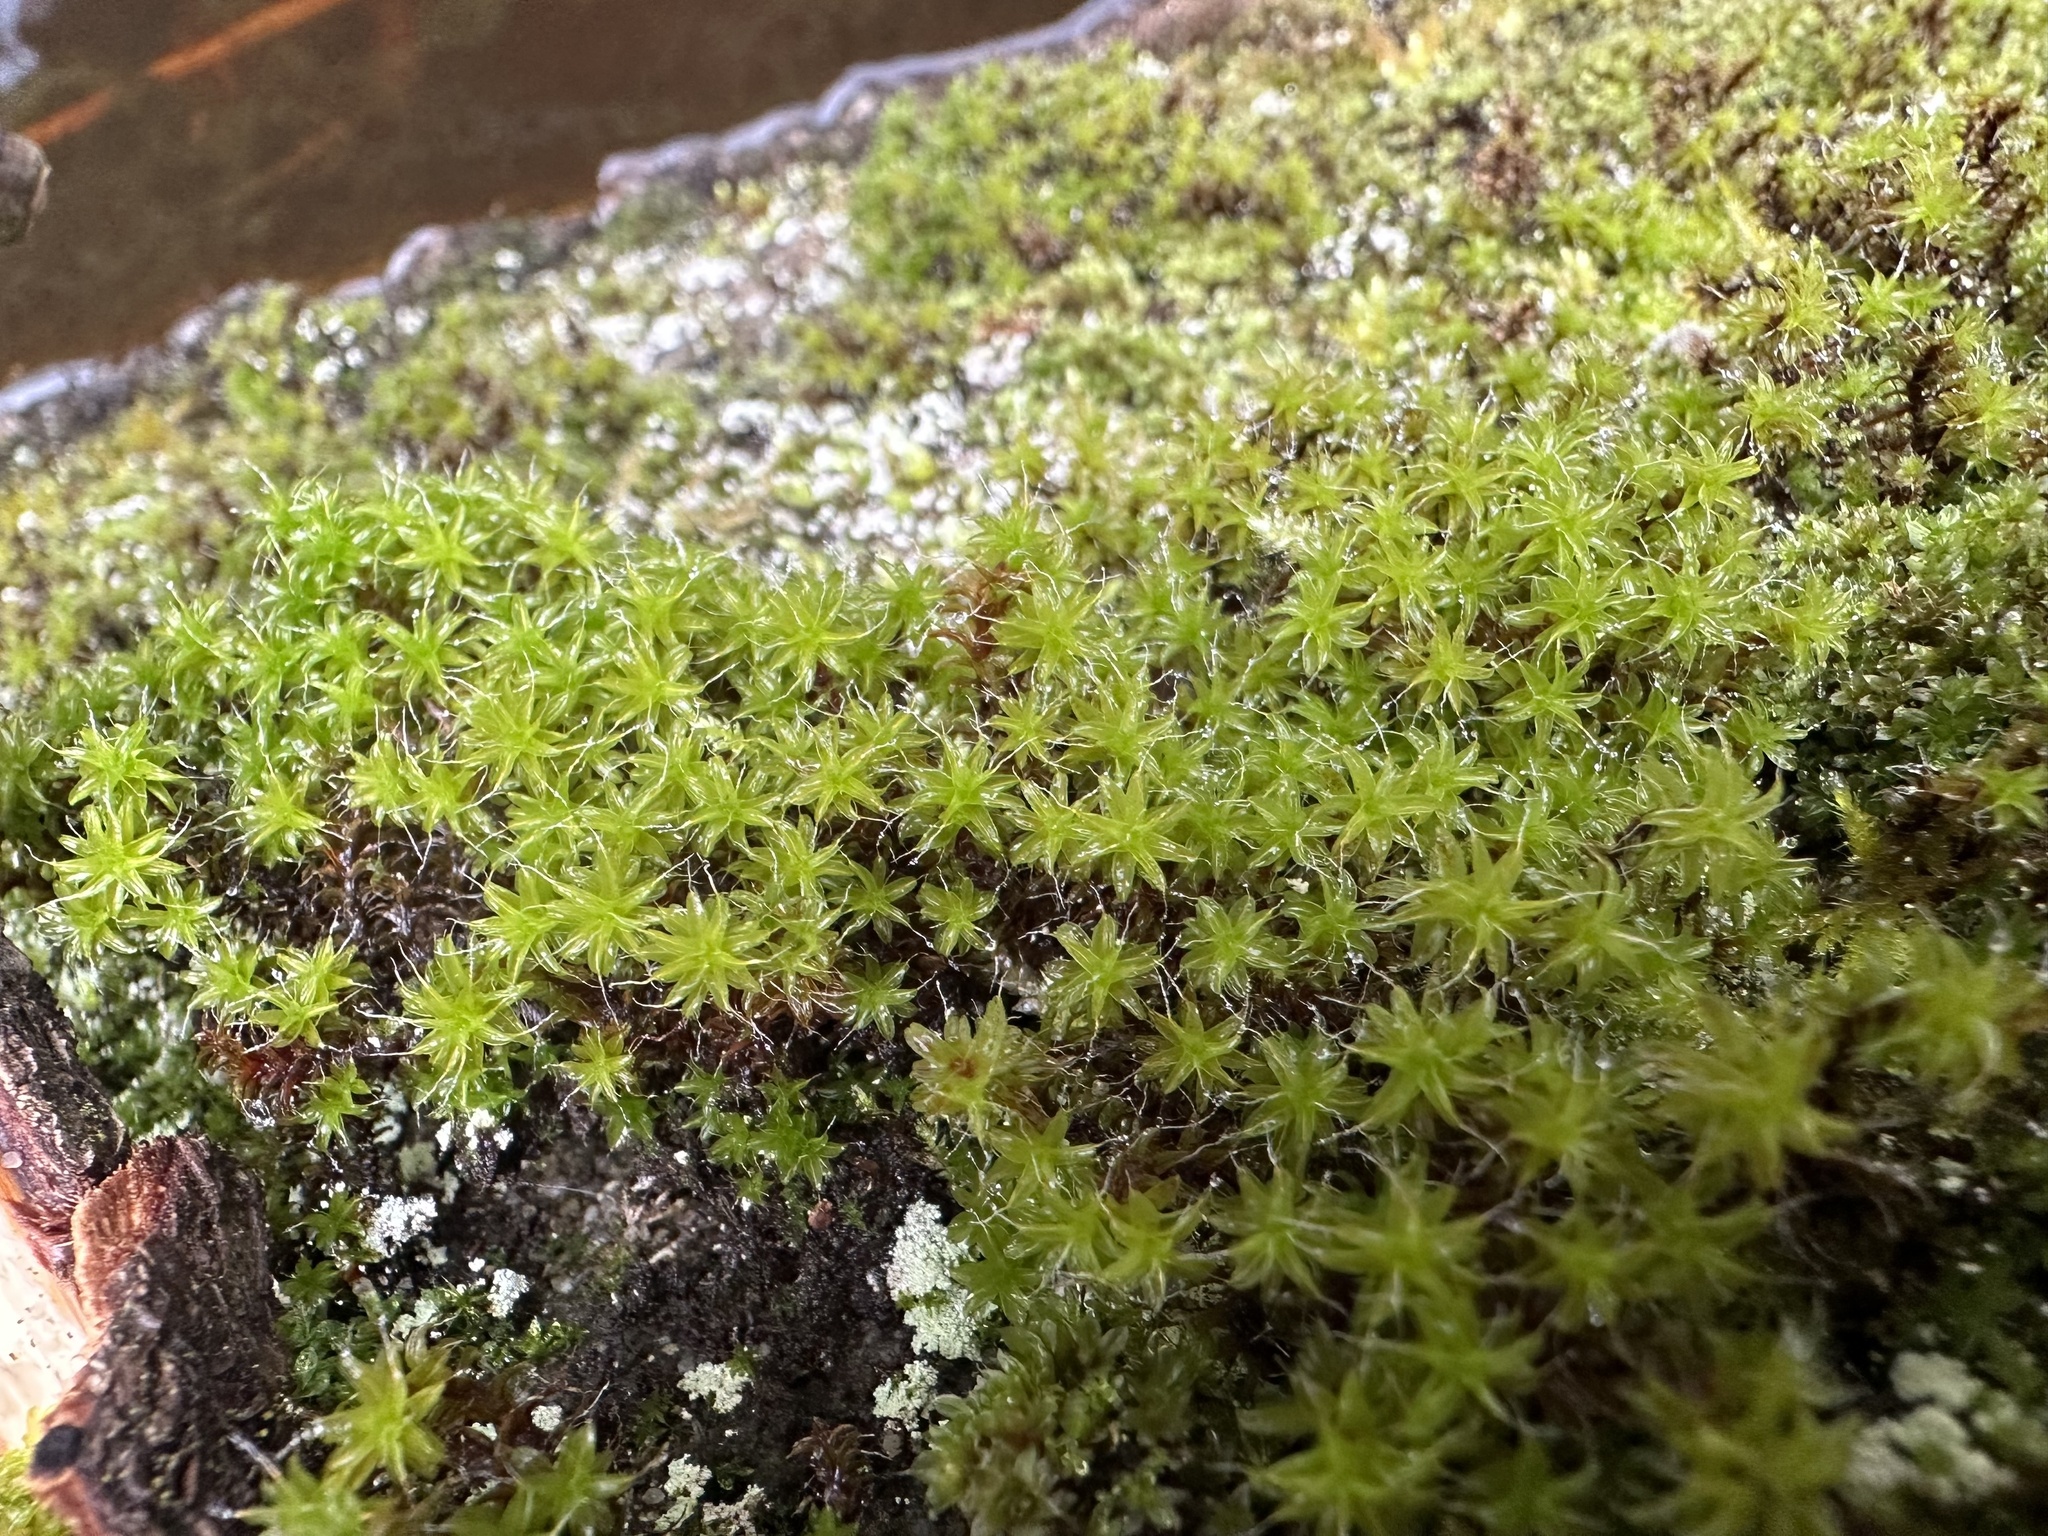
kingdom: Plantae
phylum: Bryophyta
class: Bryopsida
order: Pottiales
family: Pottiaceae
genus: Syntrichia
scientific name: Syntrichia ruralis
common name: Sidewalk screw moss
